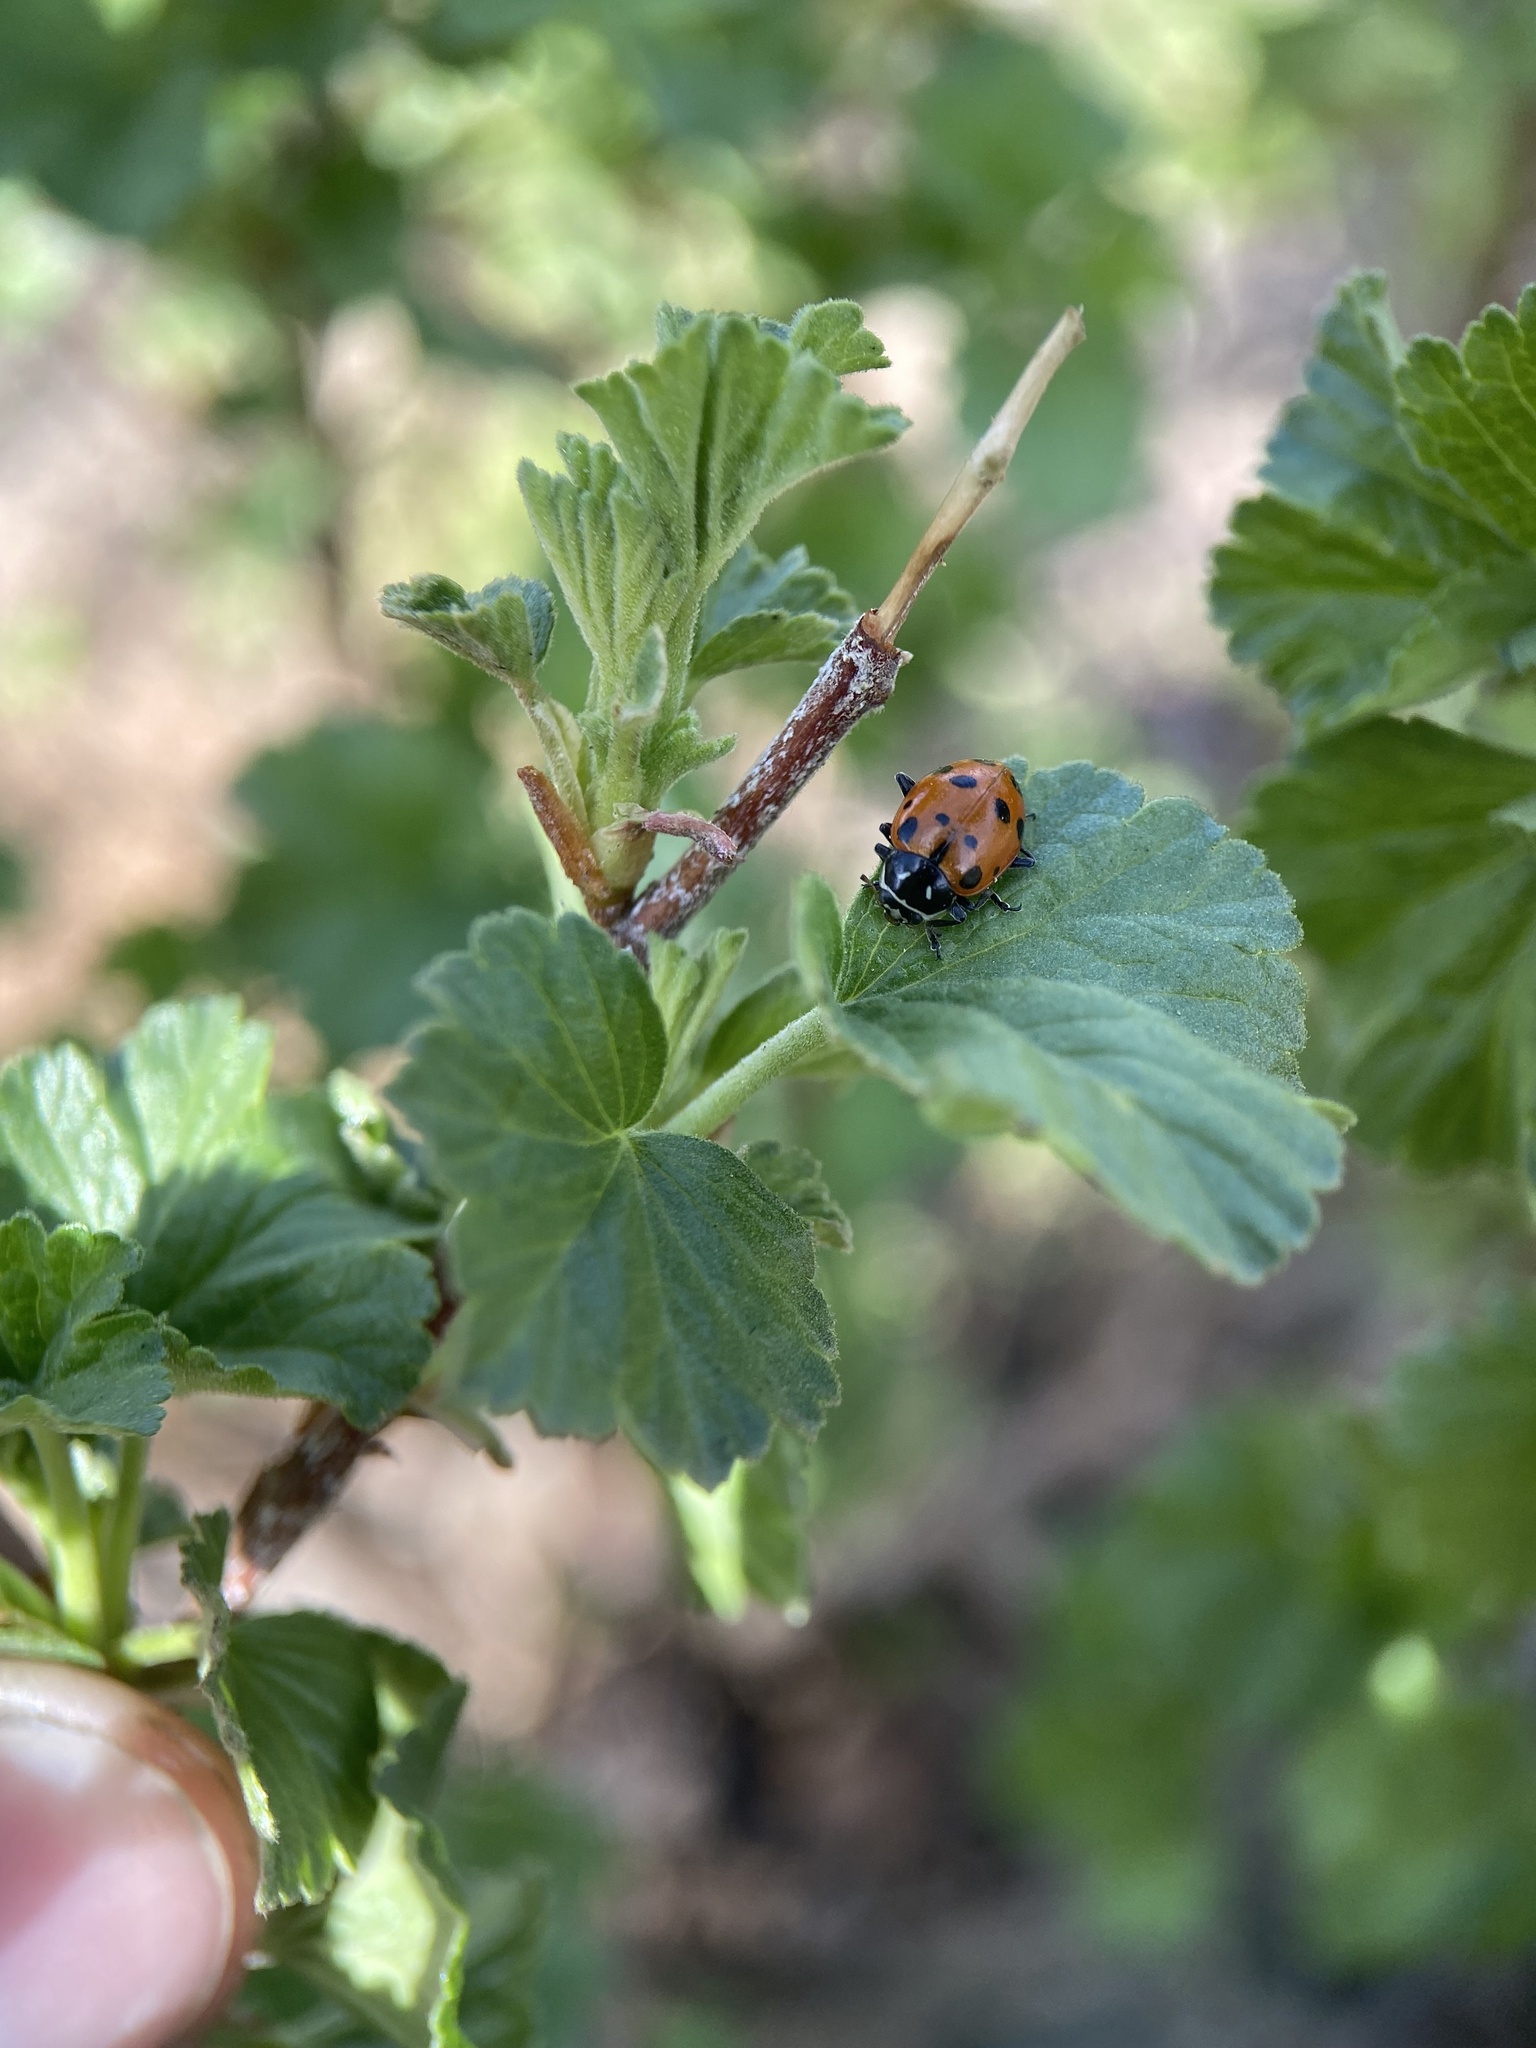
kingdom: Animalia
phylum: Arthropoda
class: Insecta
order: Coleoptera
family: Coccinellidae
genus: Hippodamia
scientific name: Hippodamia convergens
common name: Convergent lady beetle
